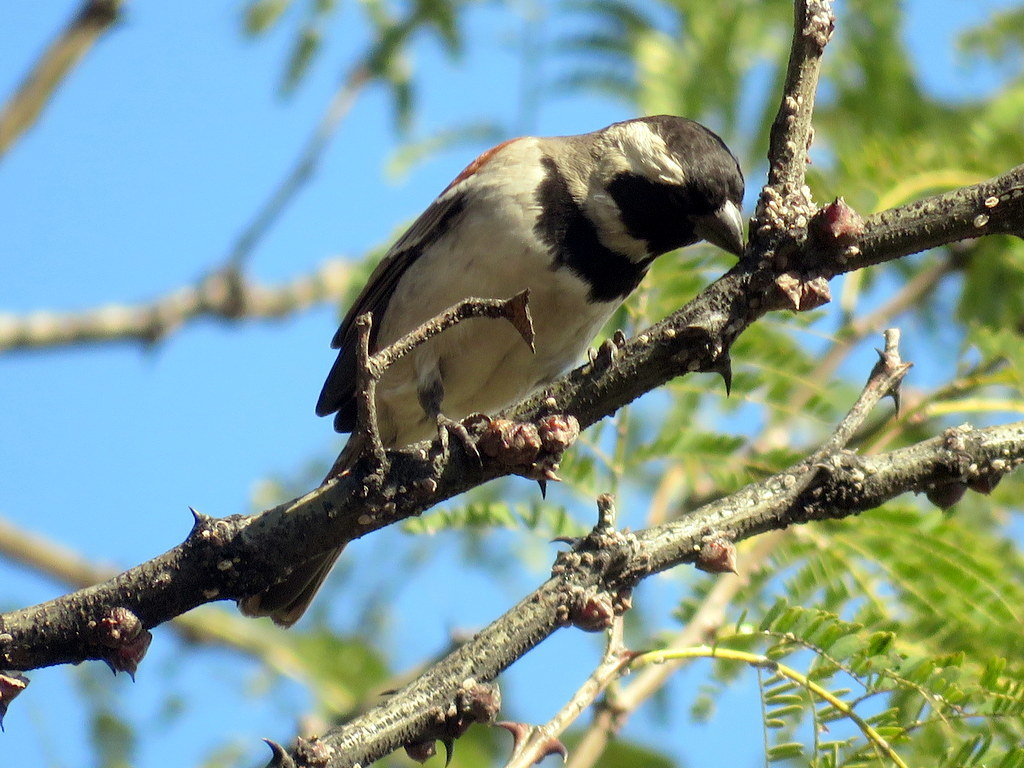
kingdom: Animalia
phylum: Chordata
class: Aves
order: Passeriformes
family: Passeridae
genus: Passer
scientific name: Passer melanurus
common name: Cape sparrow
